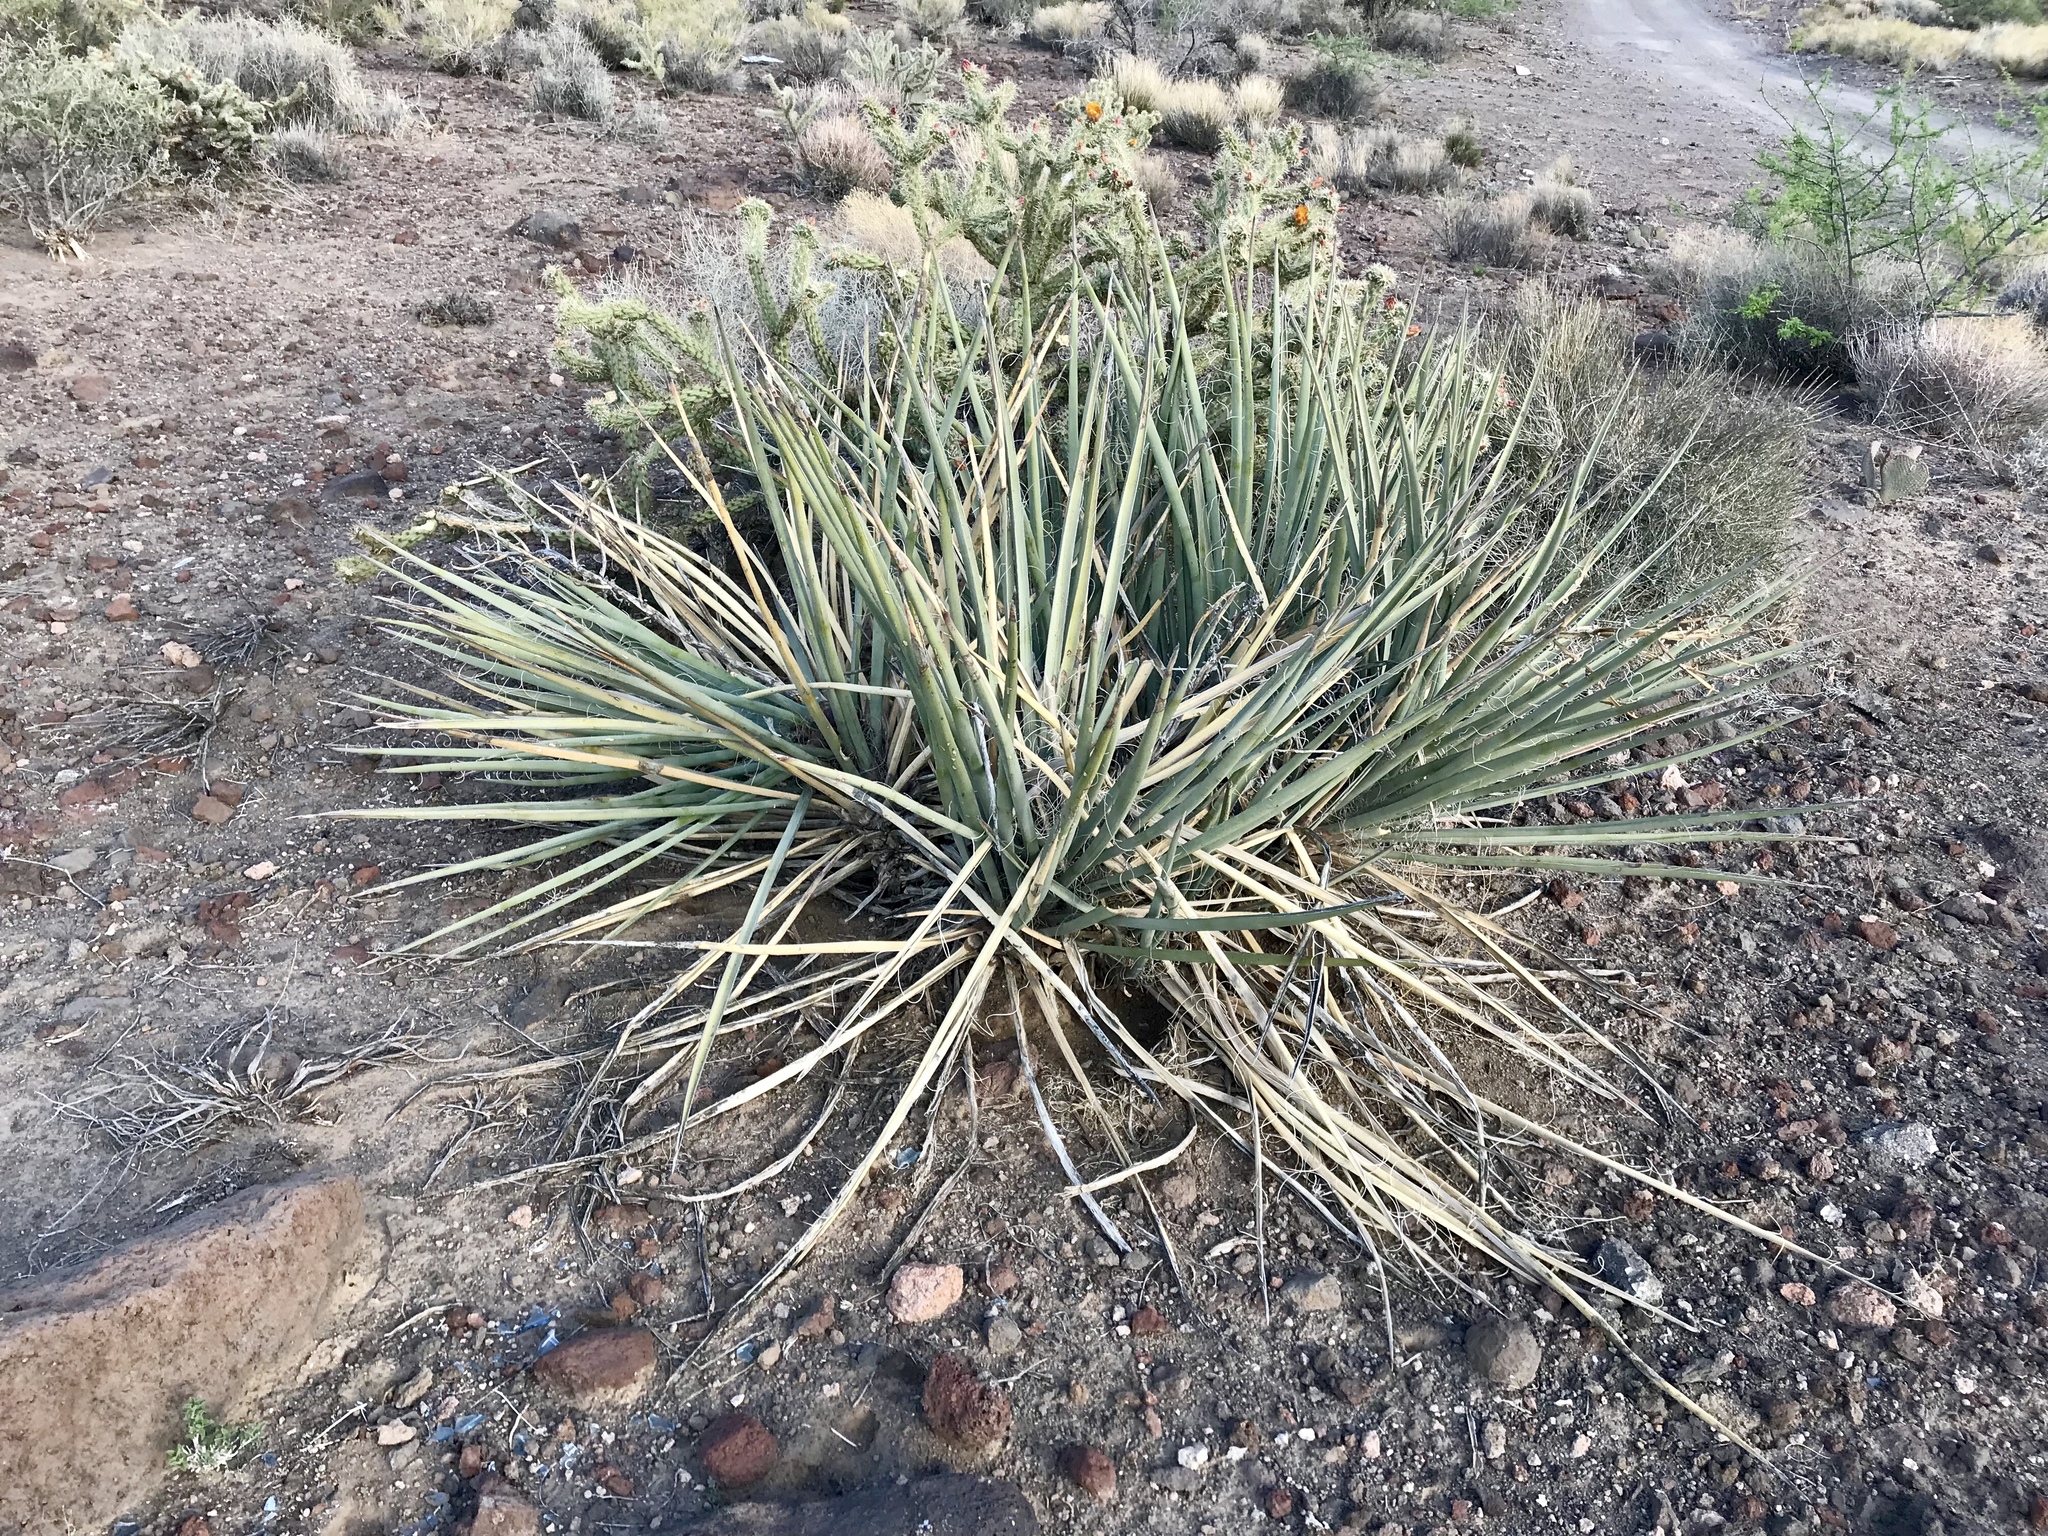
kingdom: Plantae
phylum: Tracheophyta
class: Liliopsida
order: Asparagales
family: Asparagaceae
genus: Yucca
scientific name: Yucca baccata
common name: Banana yucca
